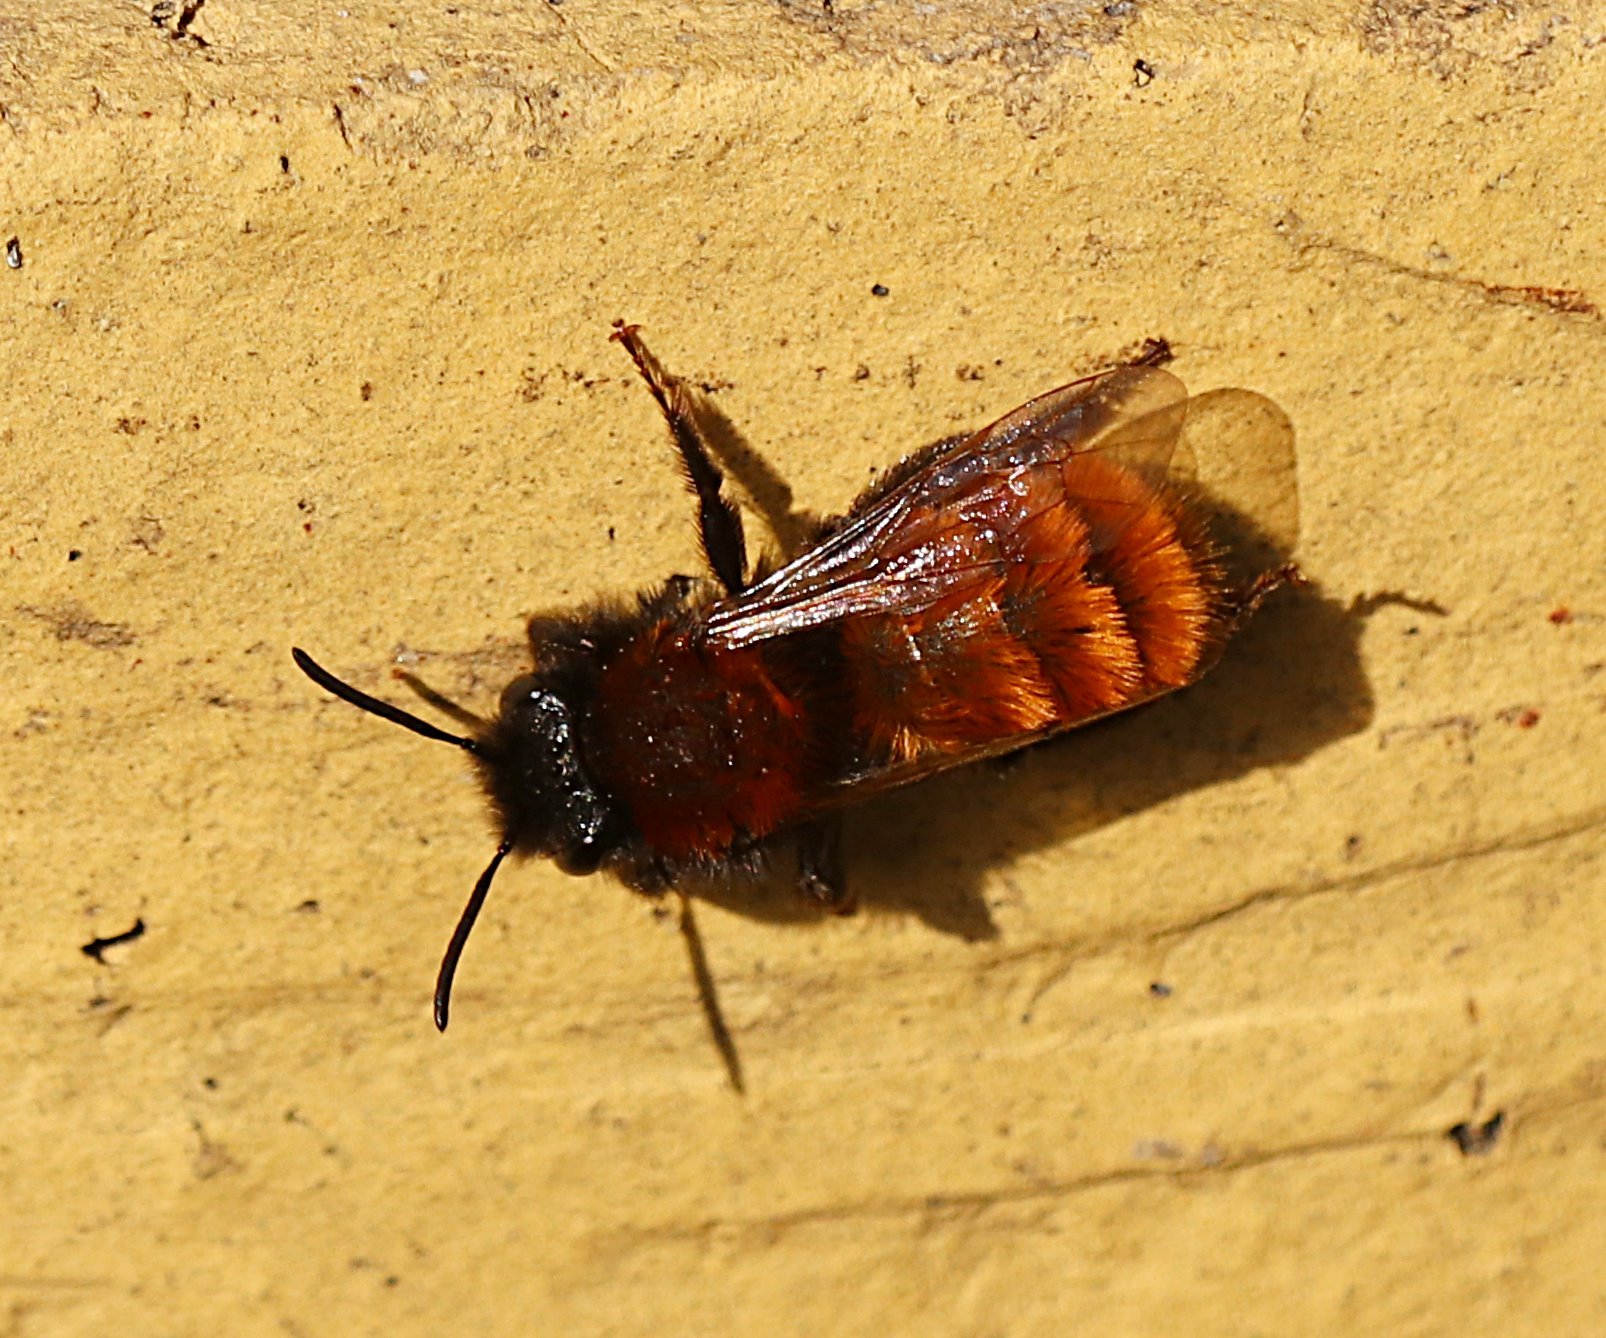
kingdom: Animalia
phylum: Arthropoda
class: Insecta
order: Hymenoptera
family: Andrenidae
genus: Andrena
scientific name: Andrena fulva
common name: Tawny mining bee
